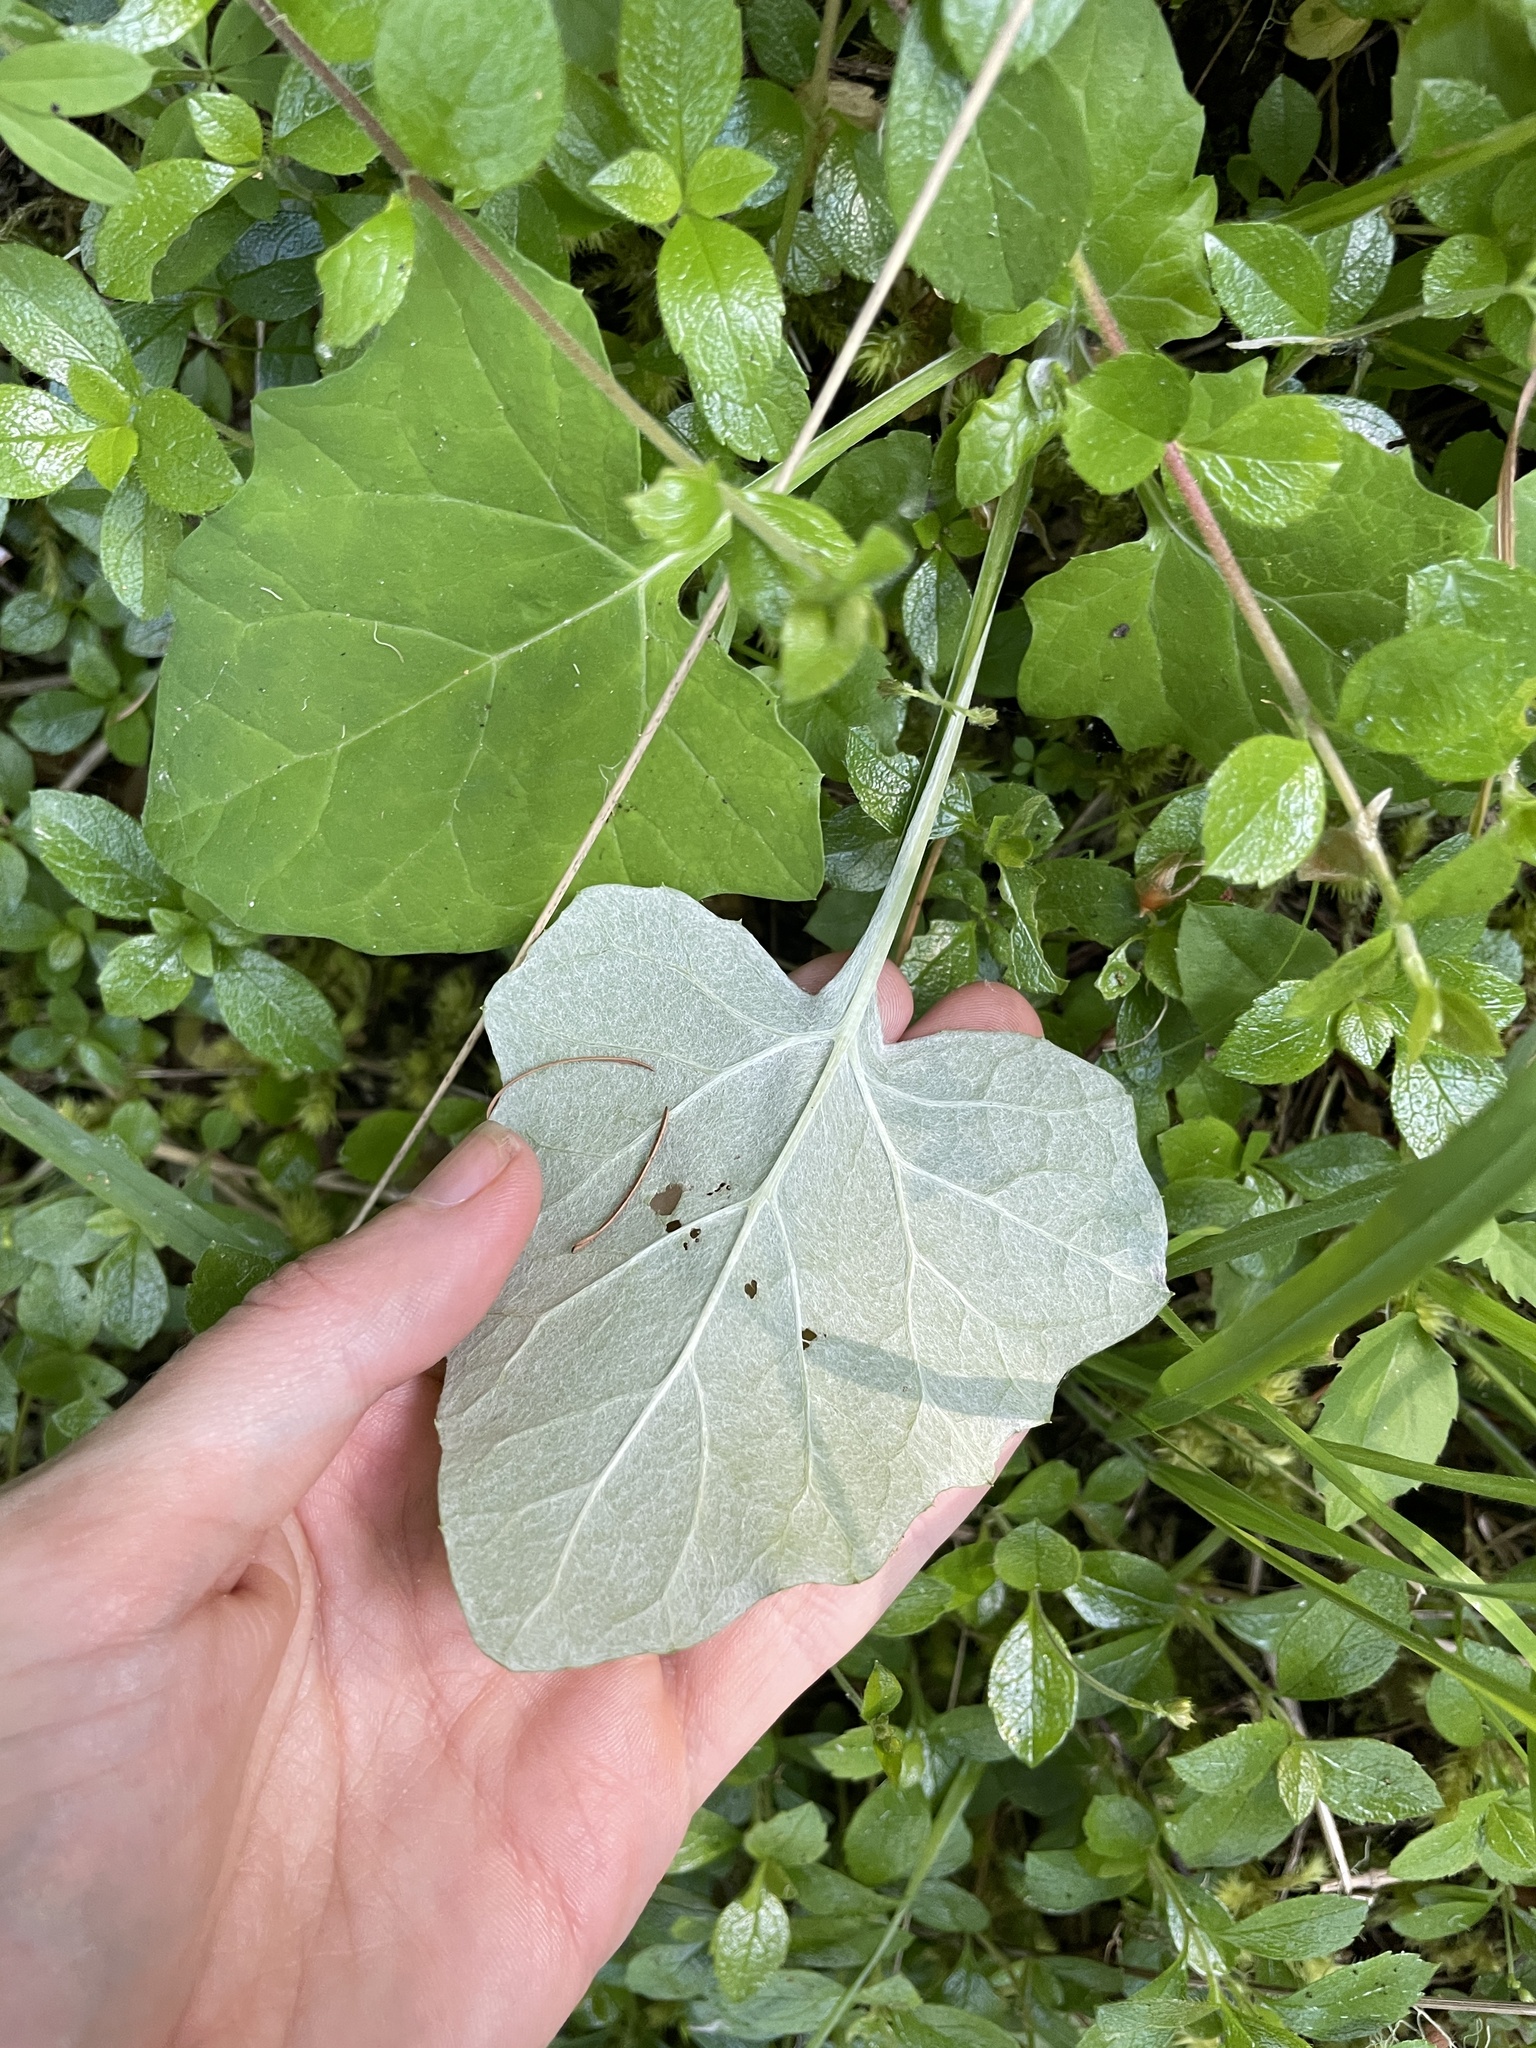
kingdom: Plantae
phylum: Tracheophyta
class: Magnoliopsida
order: Asterales
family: Asteraceae
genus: Adenocaulon
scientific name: Adenocaulon bicolor
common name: Trailplant
